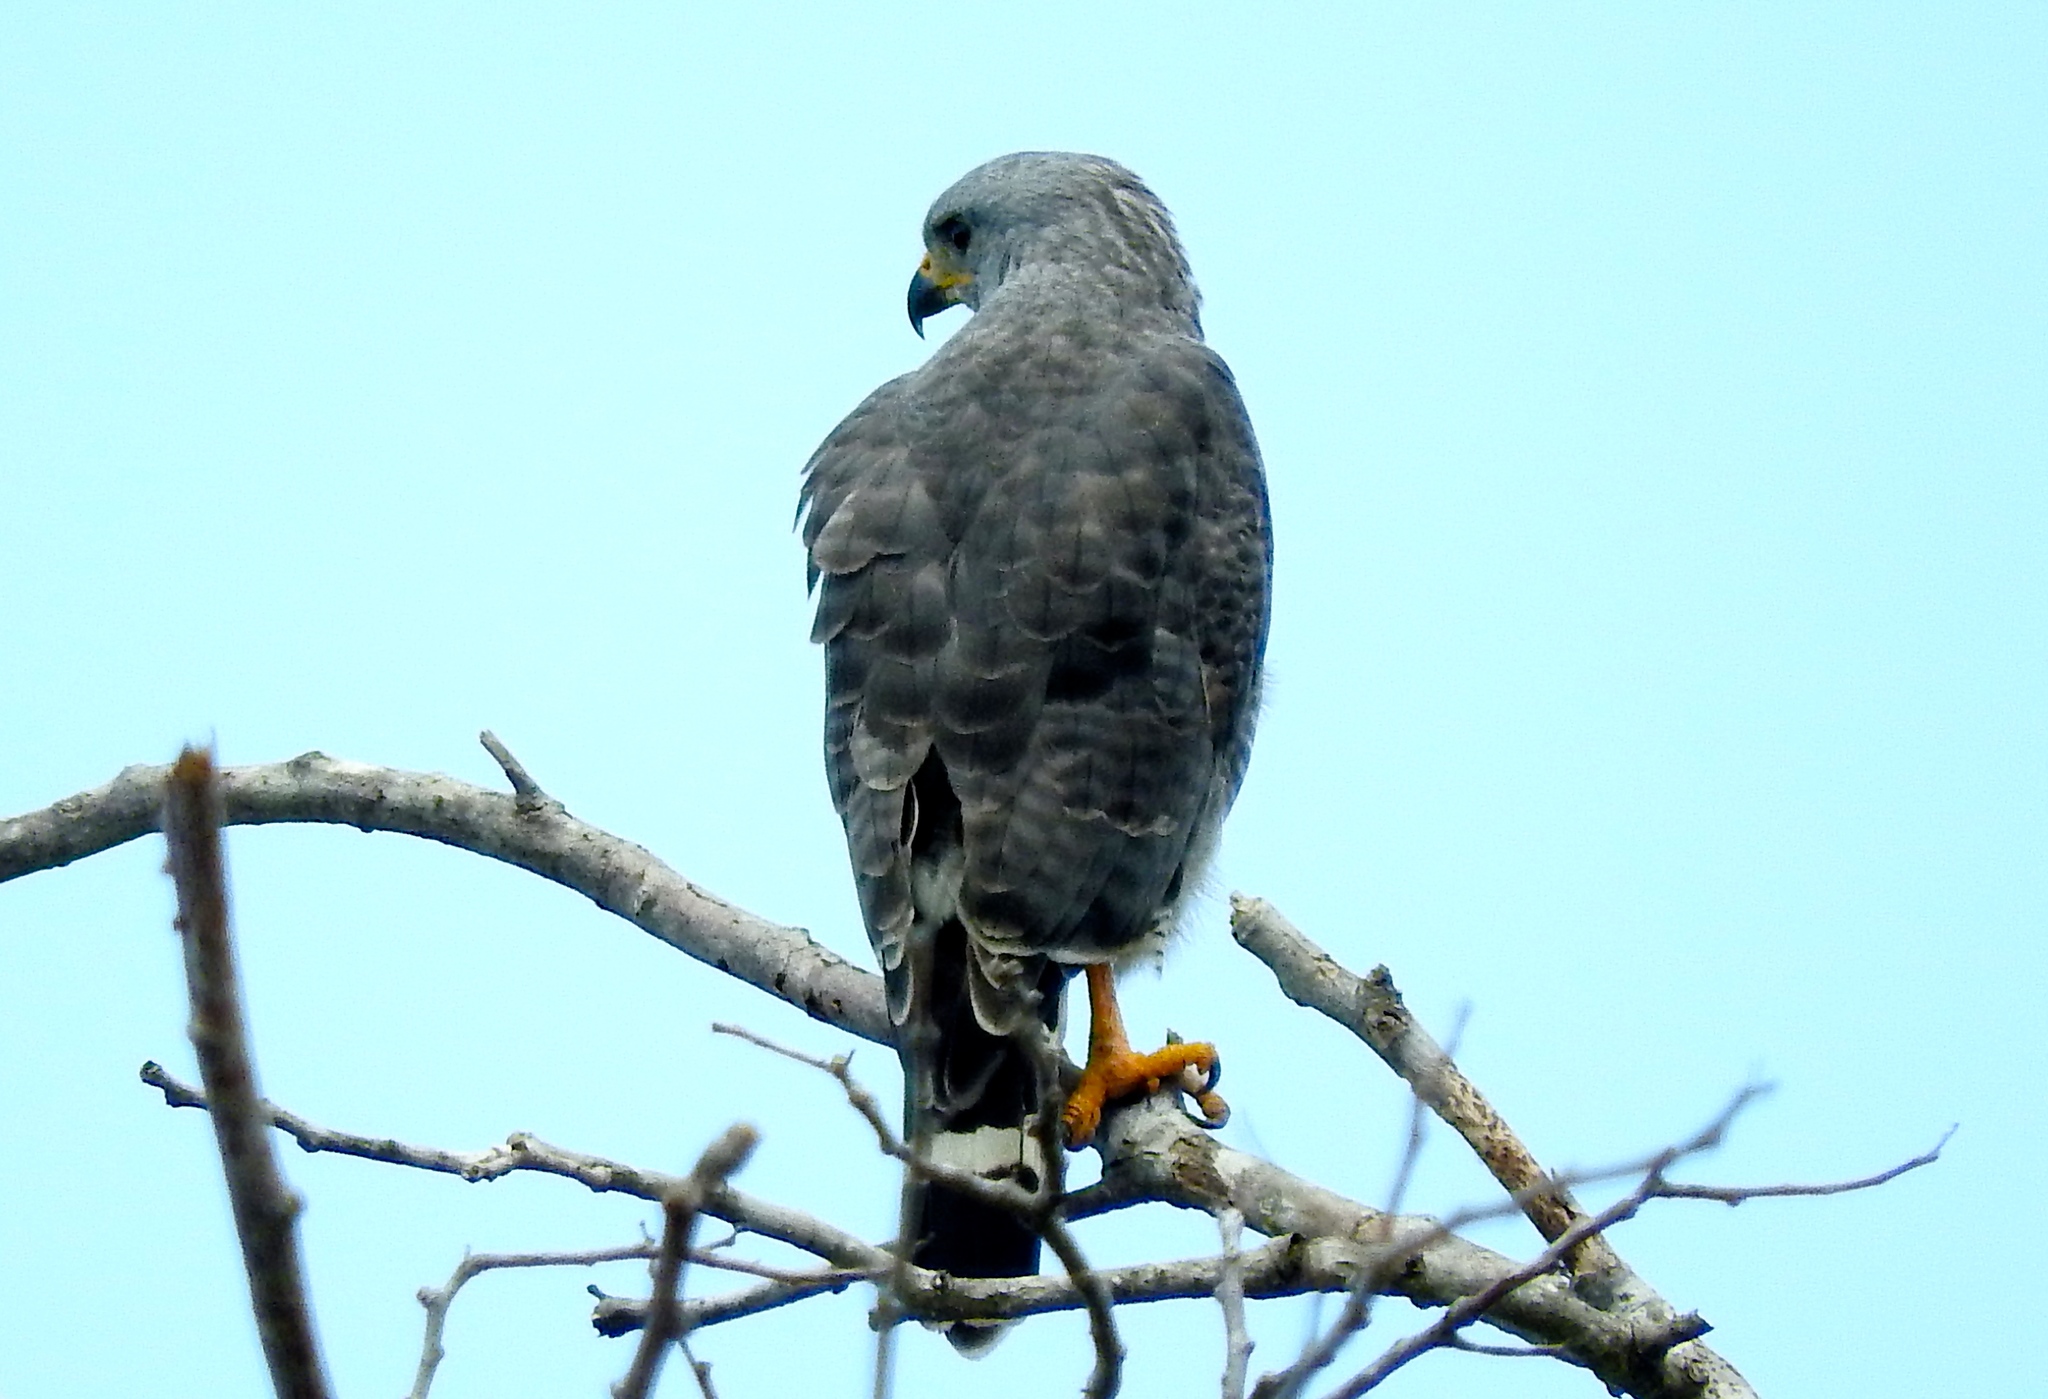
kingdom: Animalia
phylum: Chordata
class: Aves
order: Accipitriformes
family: Accipitridae
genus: Buteo
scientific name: Buteo nitidus
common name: Grey-lined hawk
